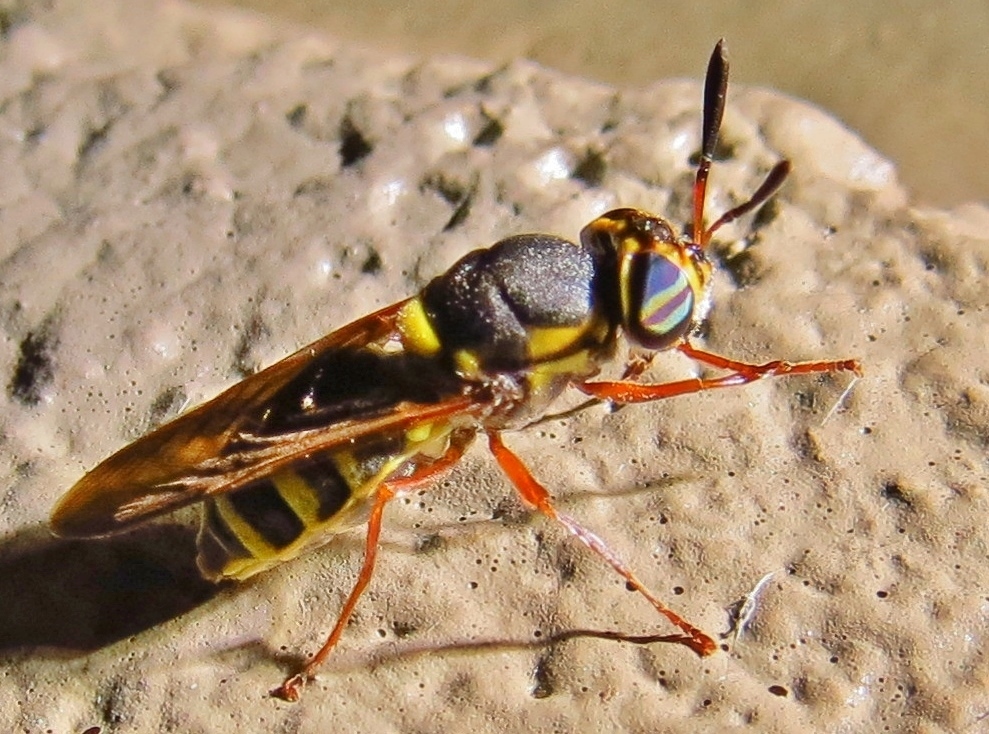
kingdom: Animalia
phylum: Arthropoda
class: Insecta
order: Diptera
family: Stratiomyidae
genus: Hoplitimyia
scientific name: Hoplitimyia constans
